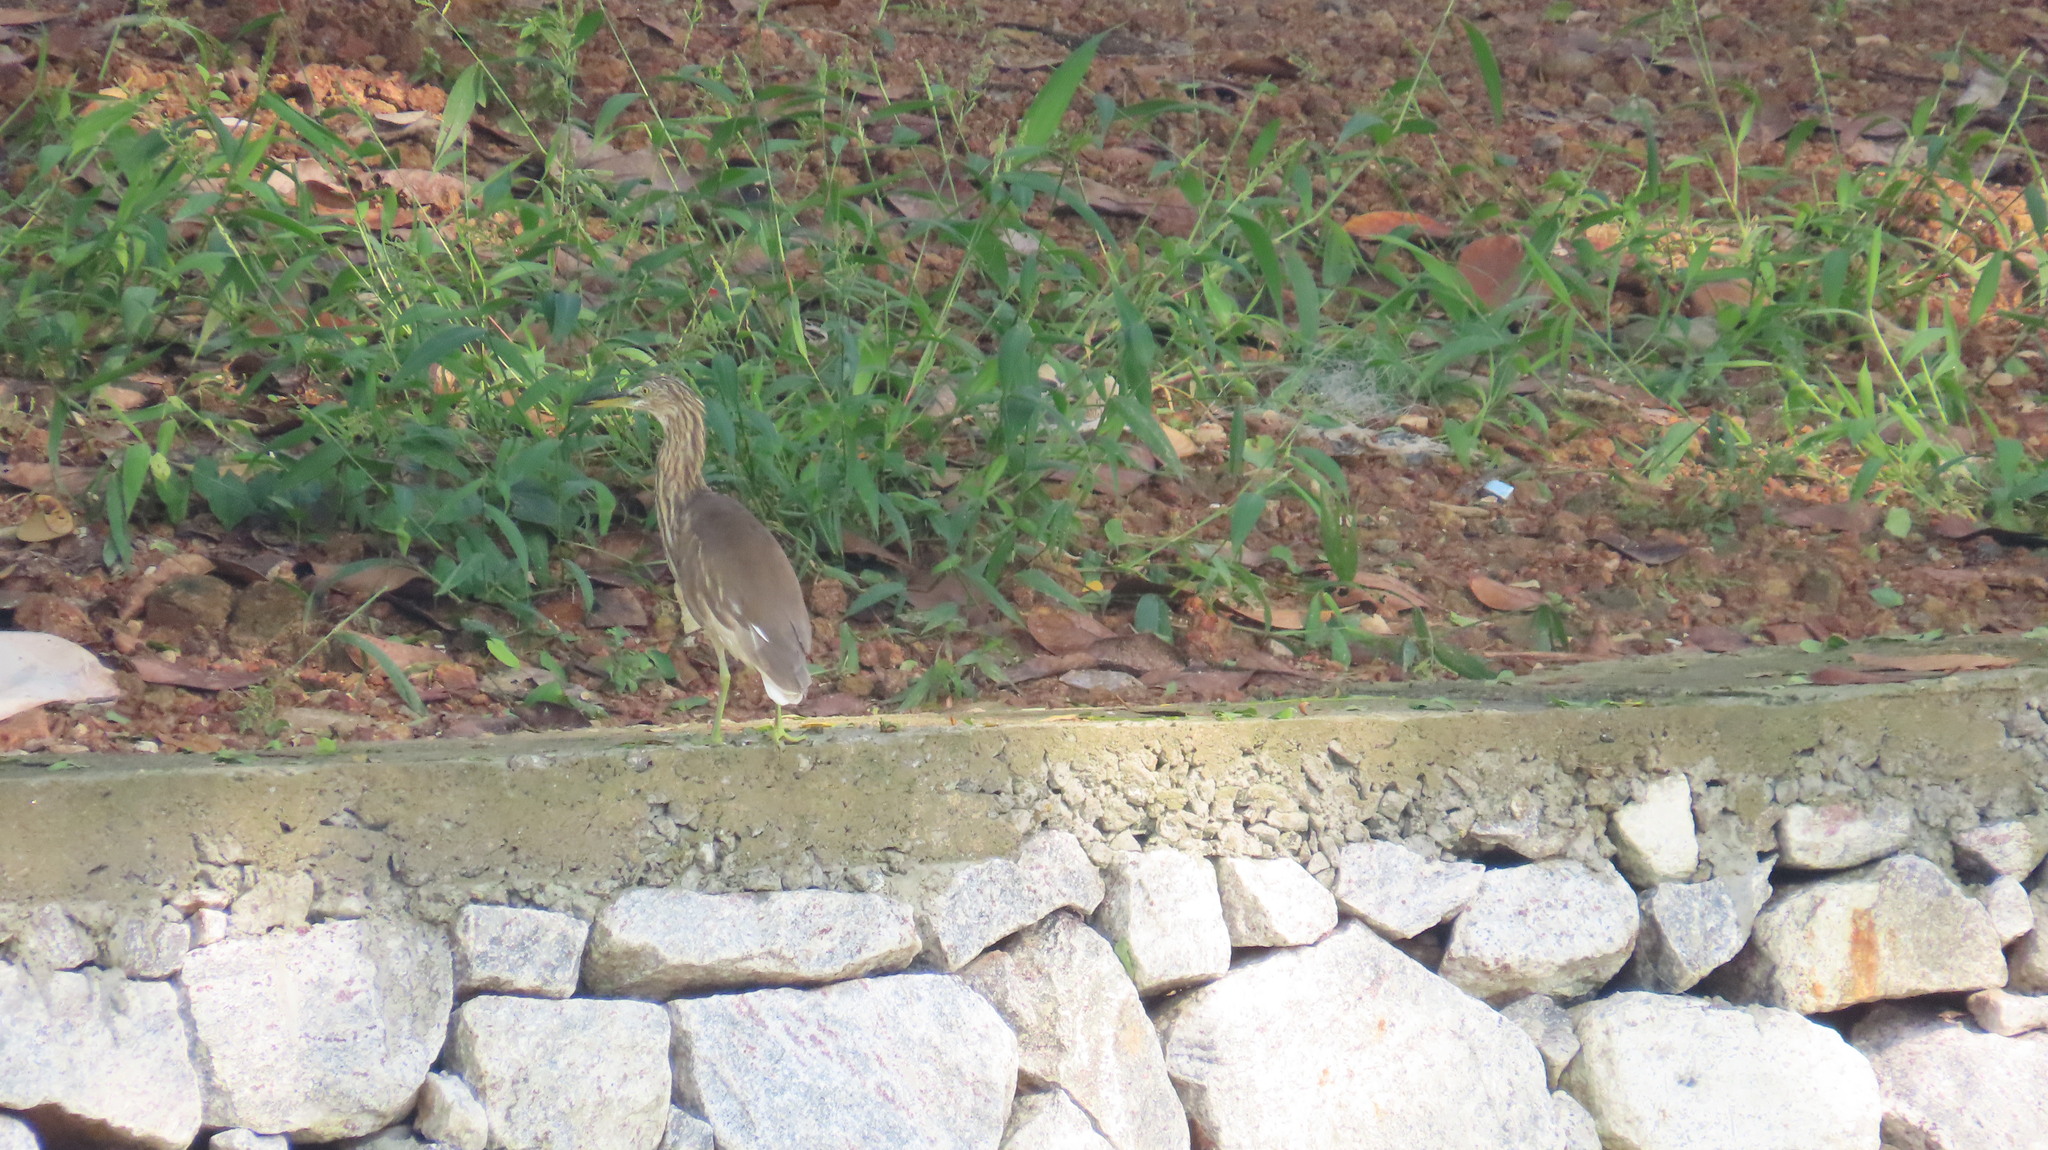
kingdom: Animalia
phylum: Chordata
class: Aves
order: Pelecaniformes
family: Ardeidae
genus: Ardeola
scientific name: Ardeola grayii
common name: Indian pond heron
